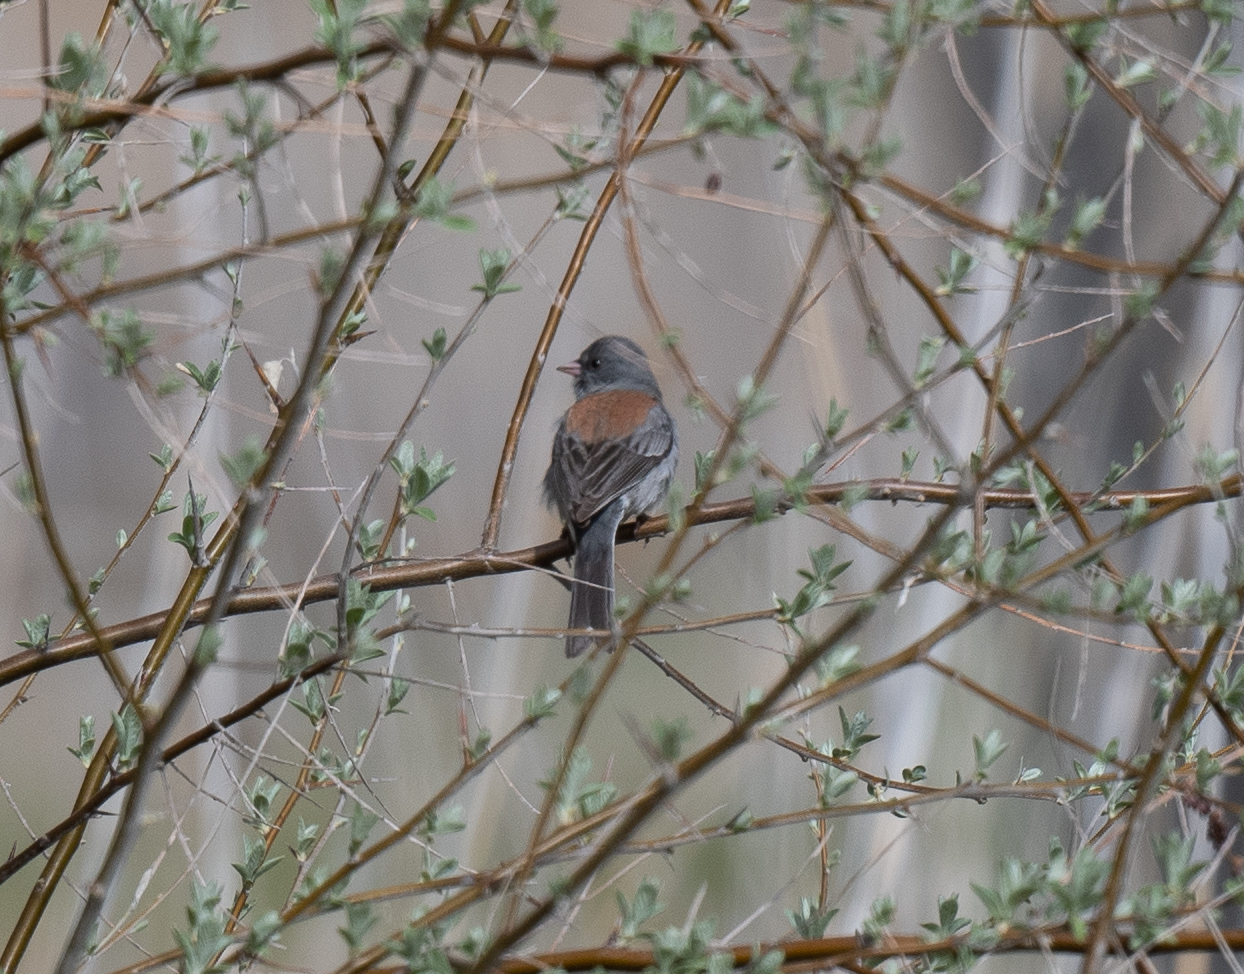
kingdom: Animalia
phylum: Chordata
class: Aves
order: Passeriformes
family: Passerellidae
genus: Junco
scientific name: Junco hyemalis
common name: Dark-eyed junco
